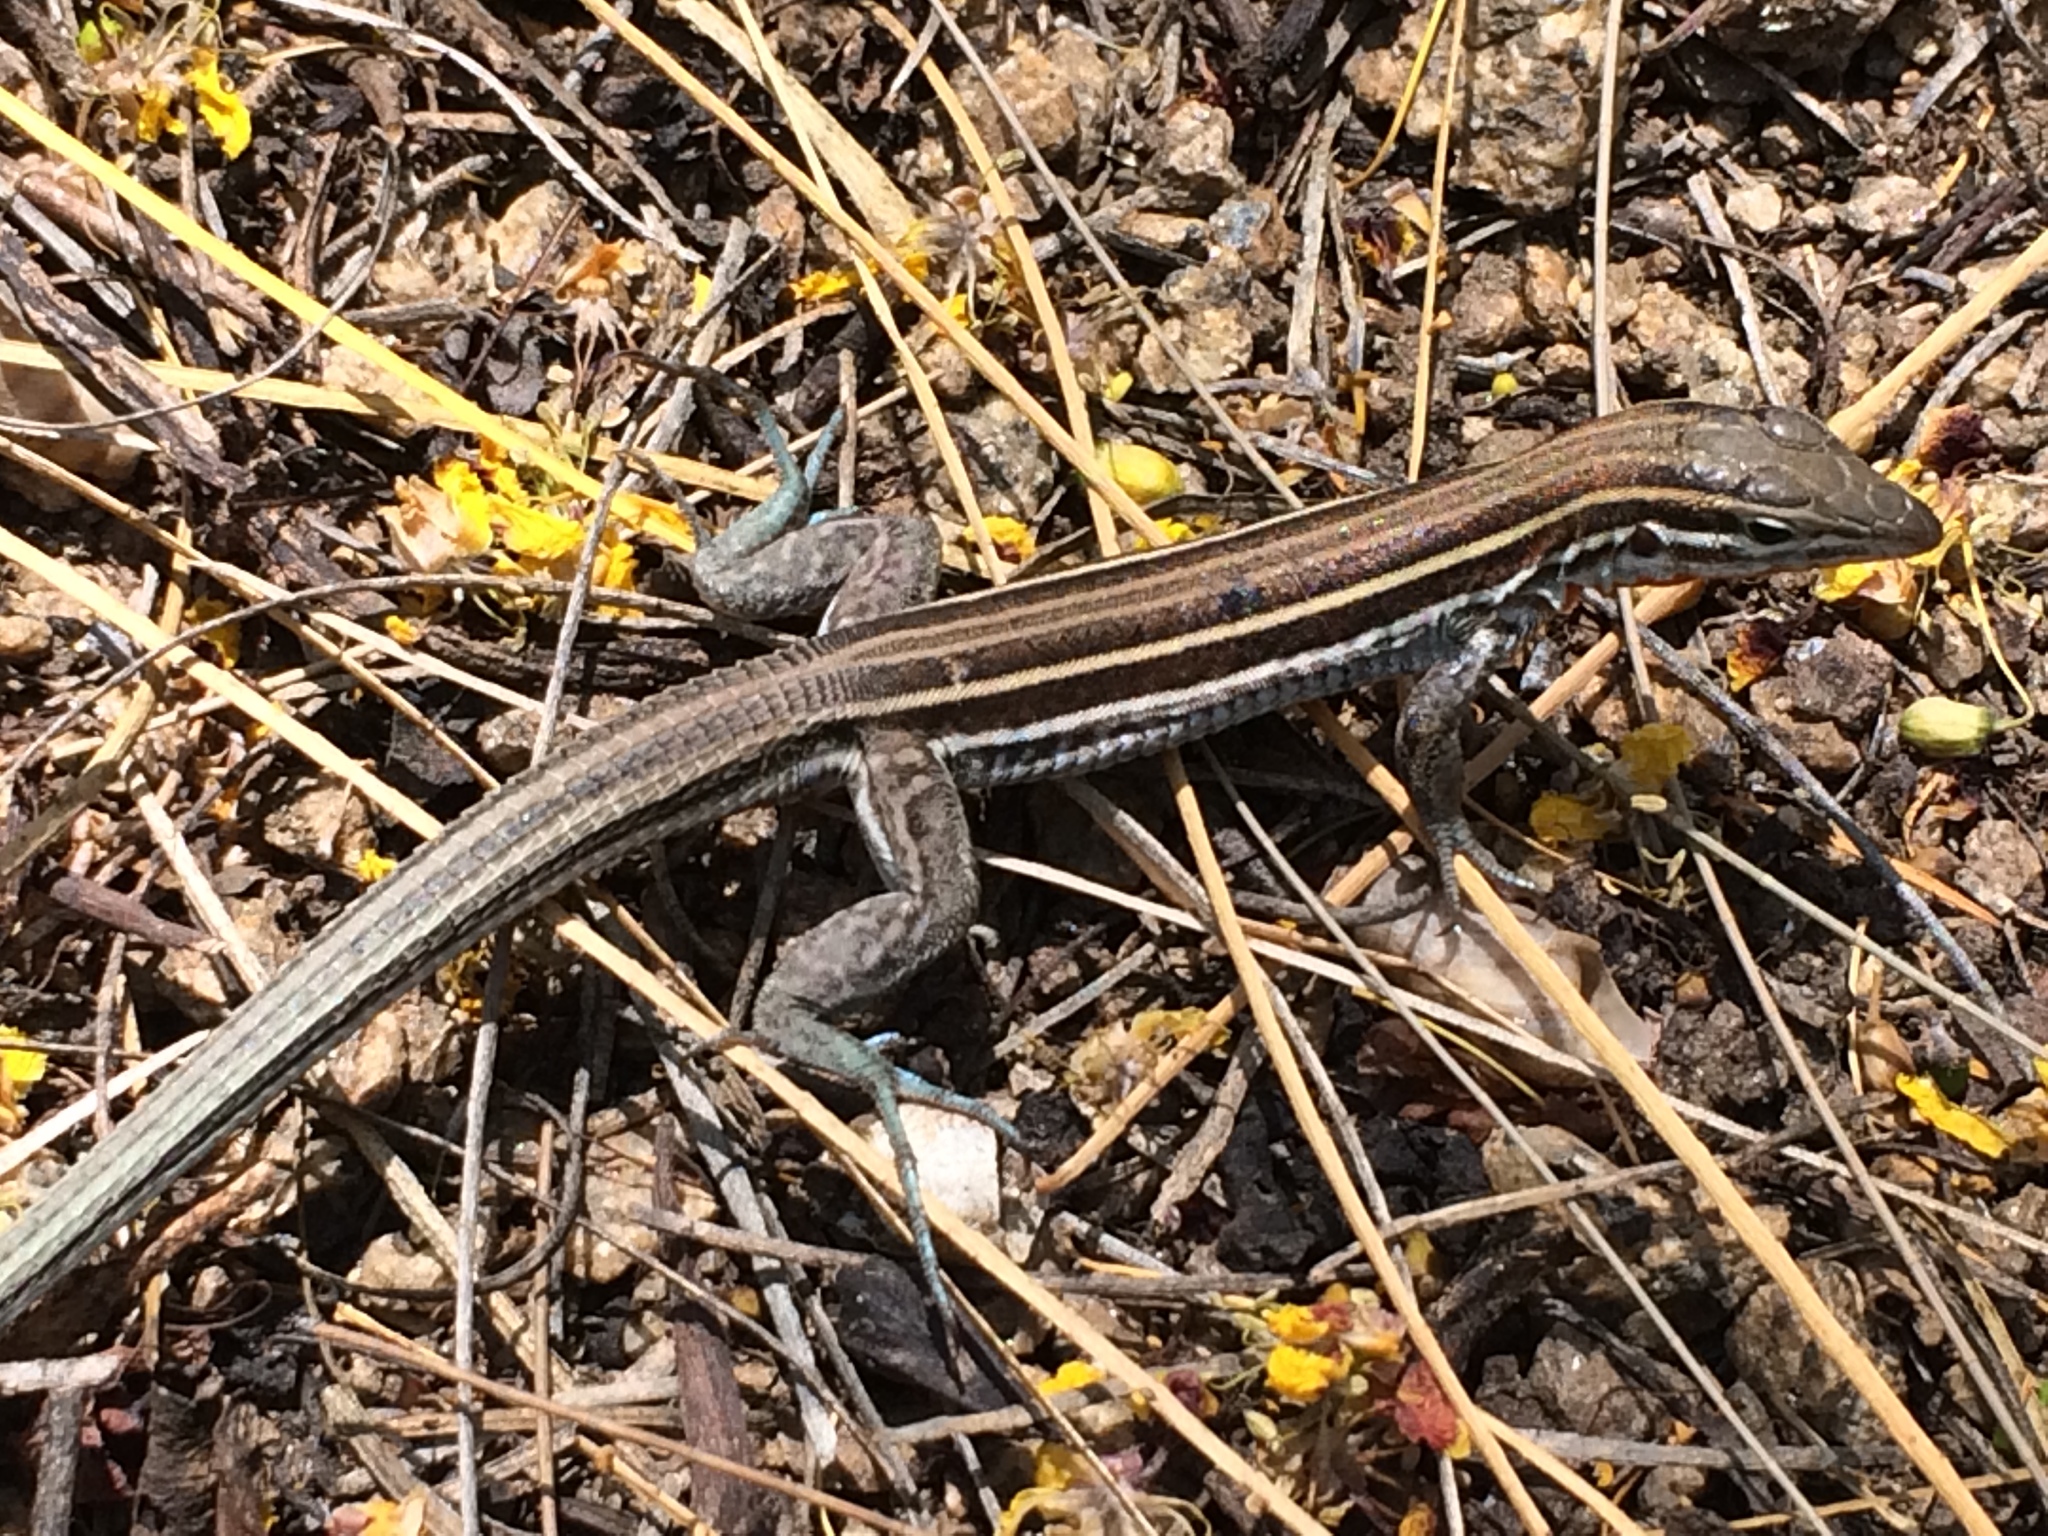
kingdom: Animalia
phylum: Chordata
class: Squamata
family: Teiidae
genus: Aspidoscelis
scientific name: Aspidoscelis hyperythrus
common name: Orange-throated race-runner
